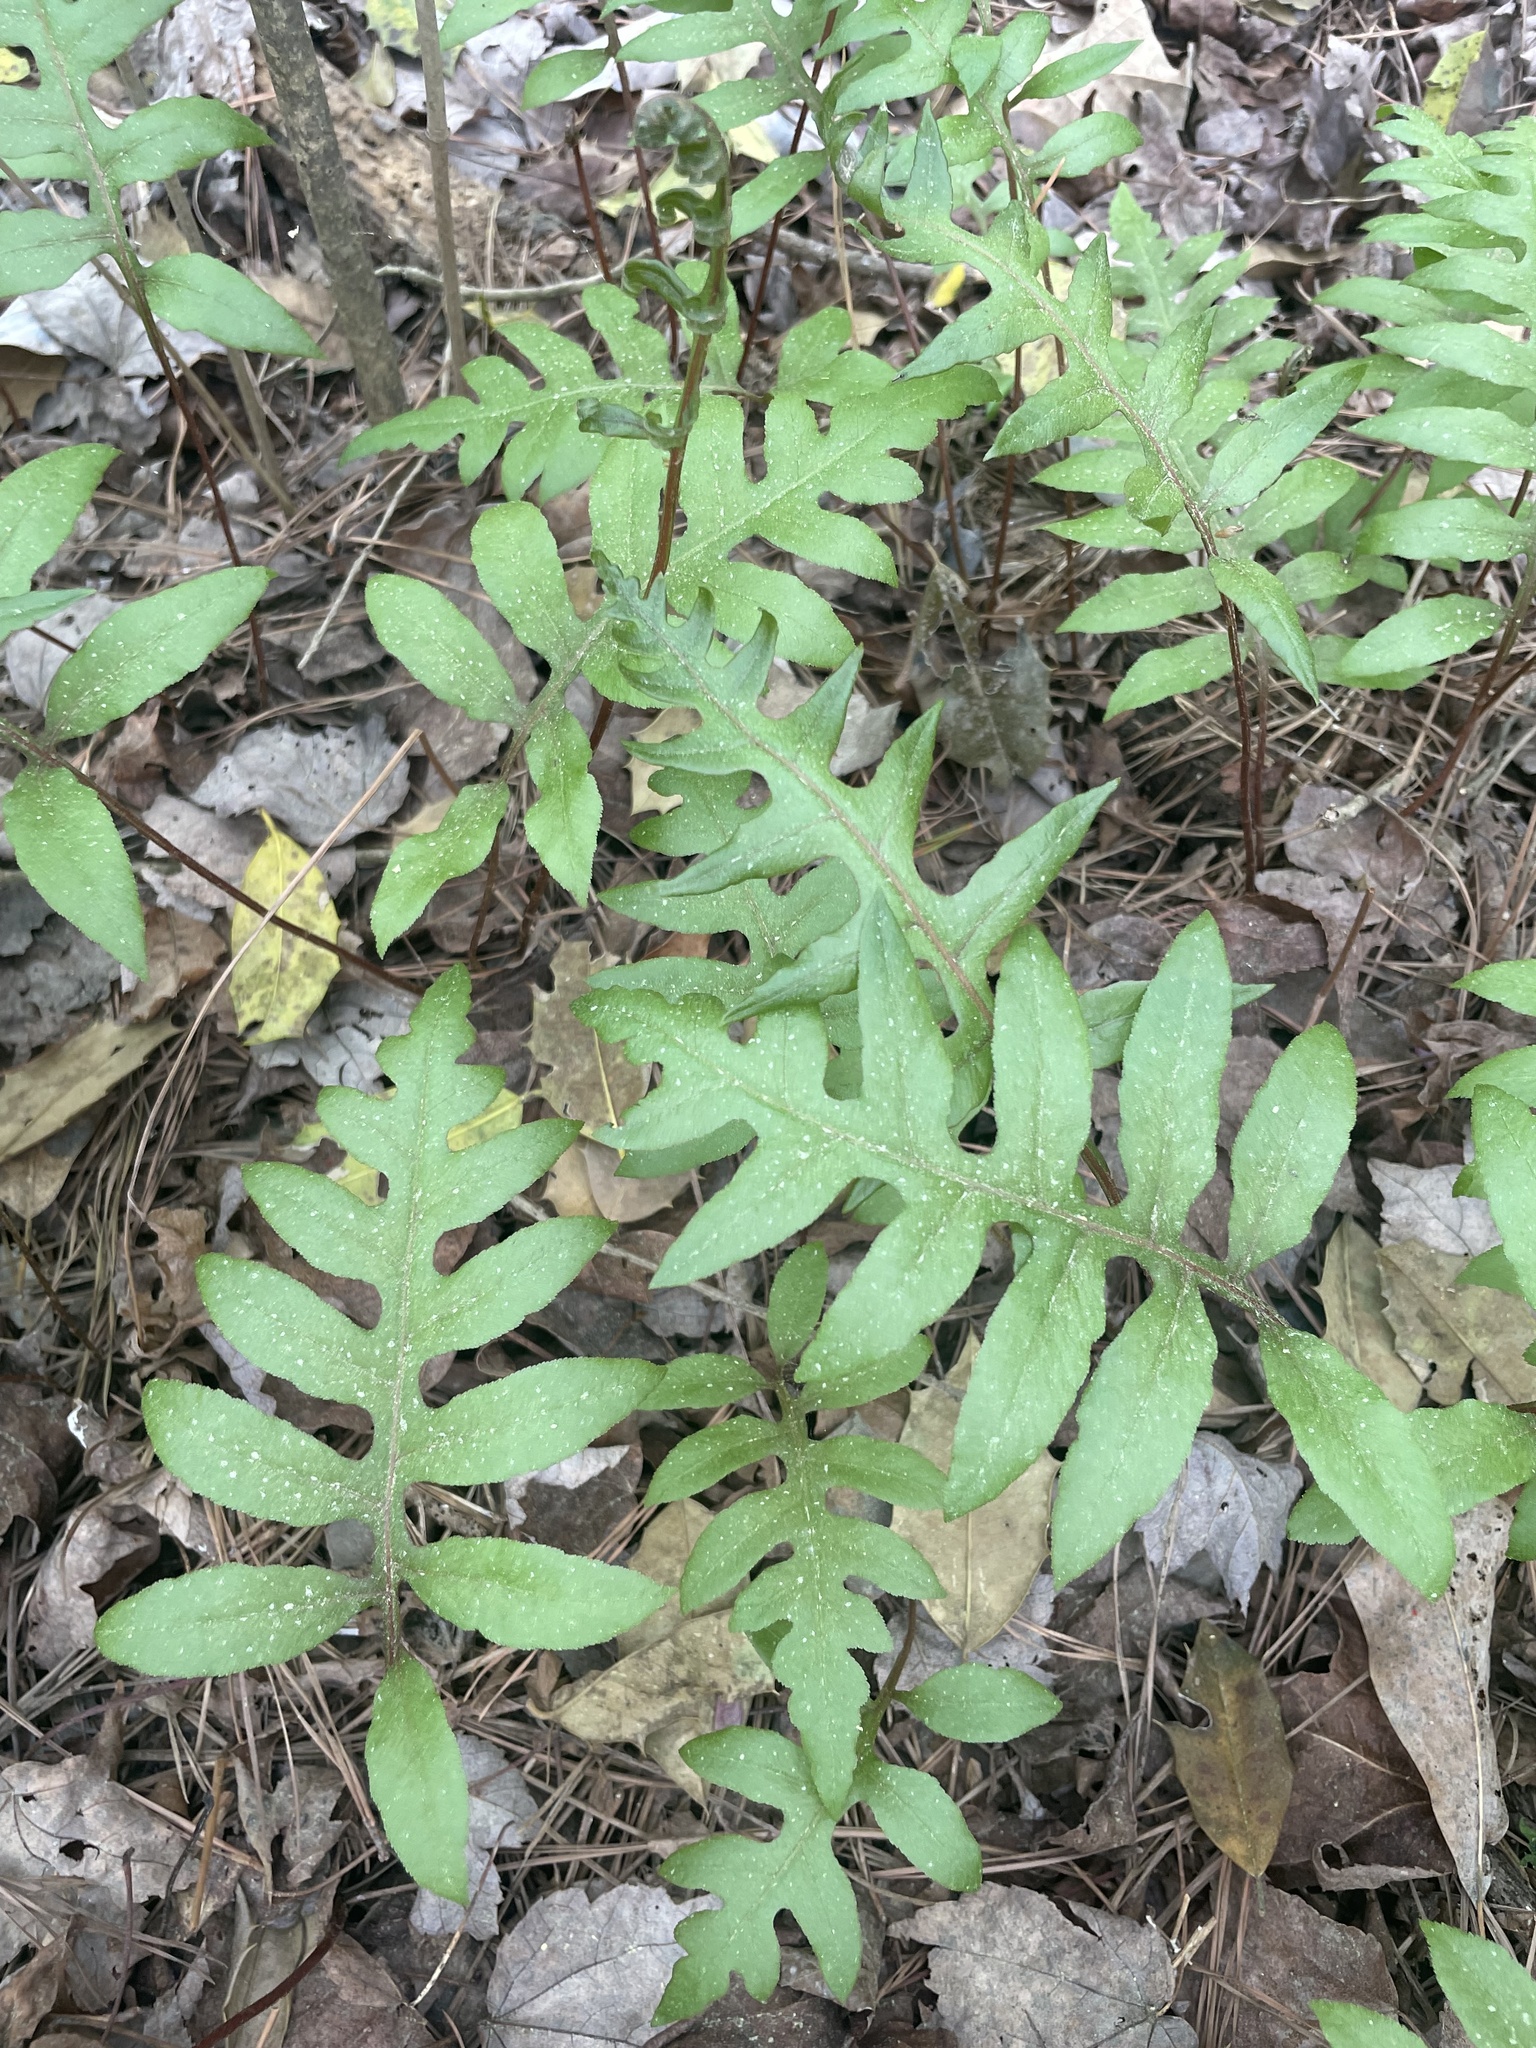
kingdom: Plantae
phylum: Tracheophyta
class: Polypodiopsida
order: Polypodiales
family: Blechnaceae
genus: Lorinseria
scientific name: Lorinseria areolata
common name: Dwarf chain fern
